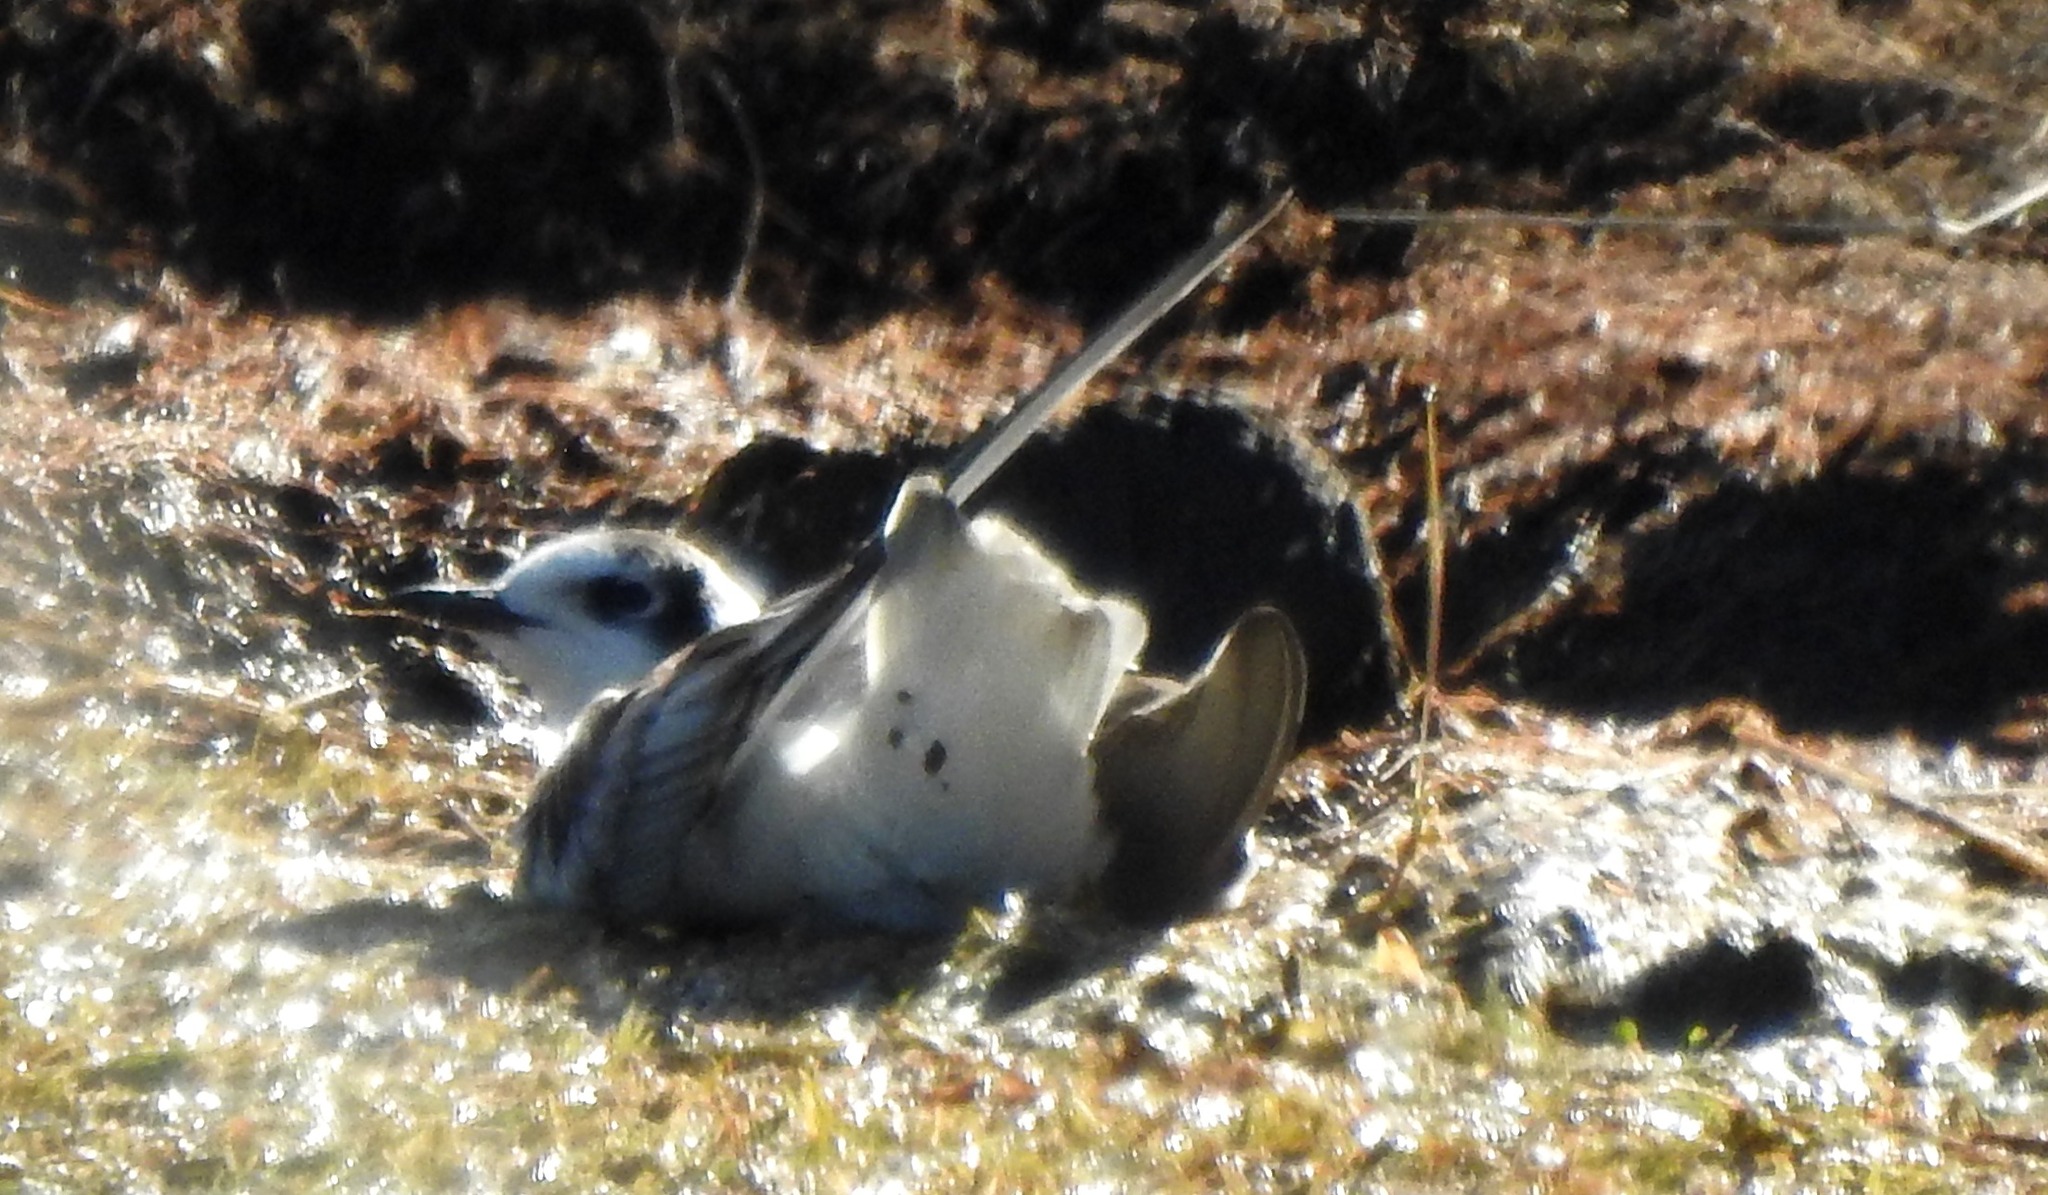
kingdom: Animalia
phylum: Chordata
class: Aves
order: Charadriiformes
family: Laridae
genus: Chlidonias
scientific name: Chlidonias leucopterus
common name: White-winged tern
